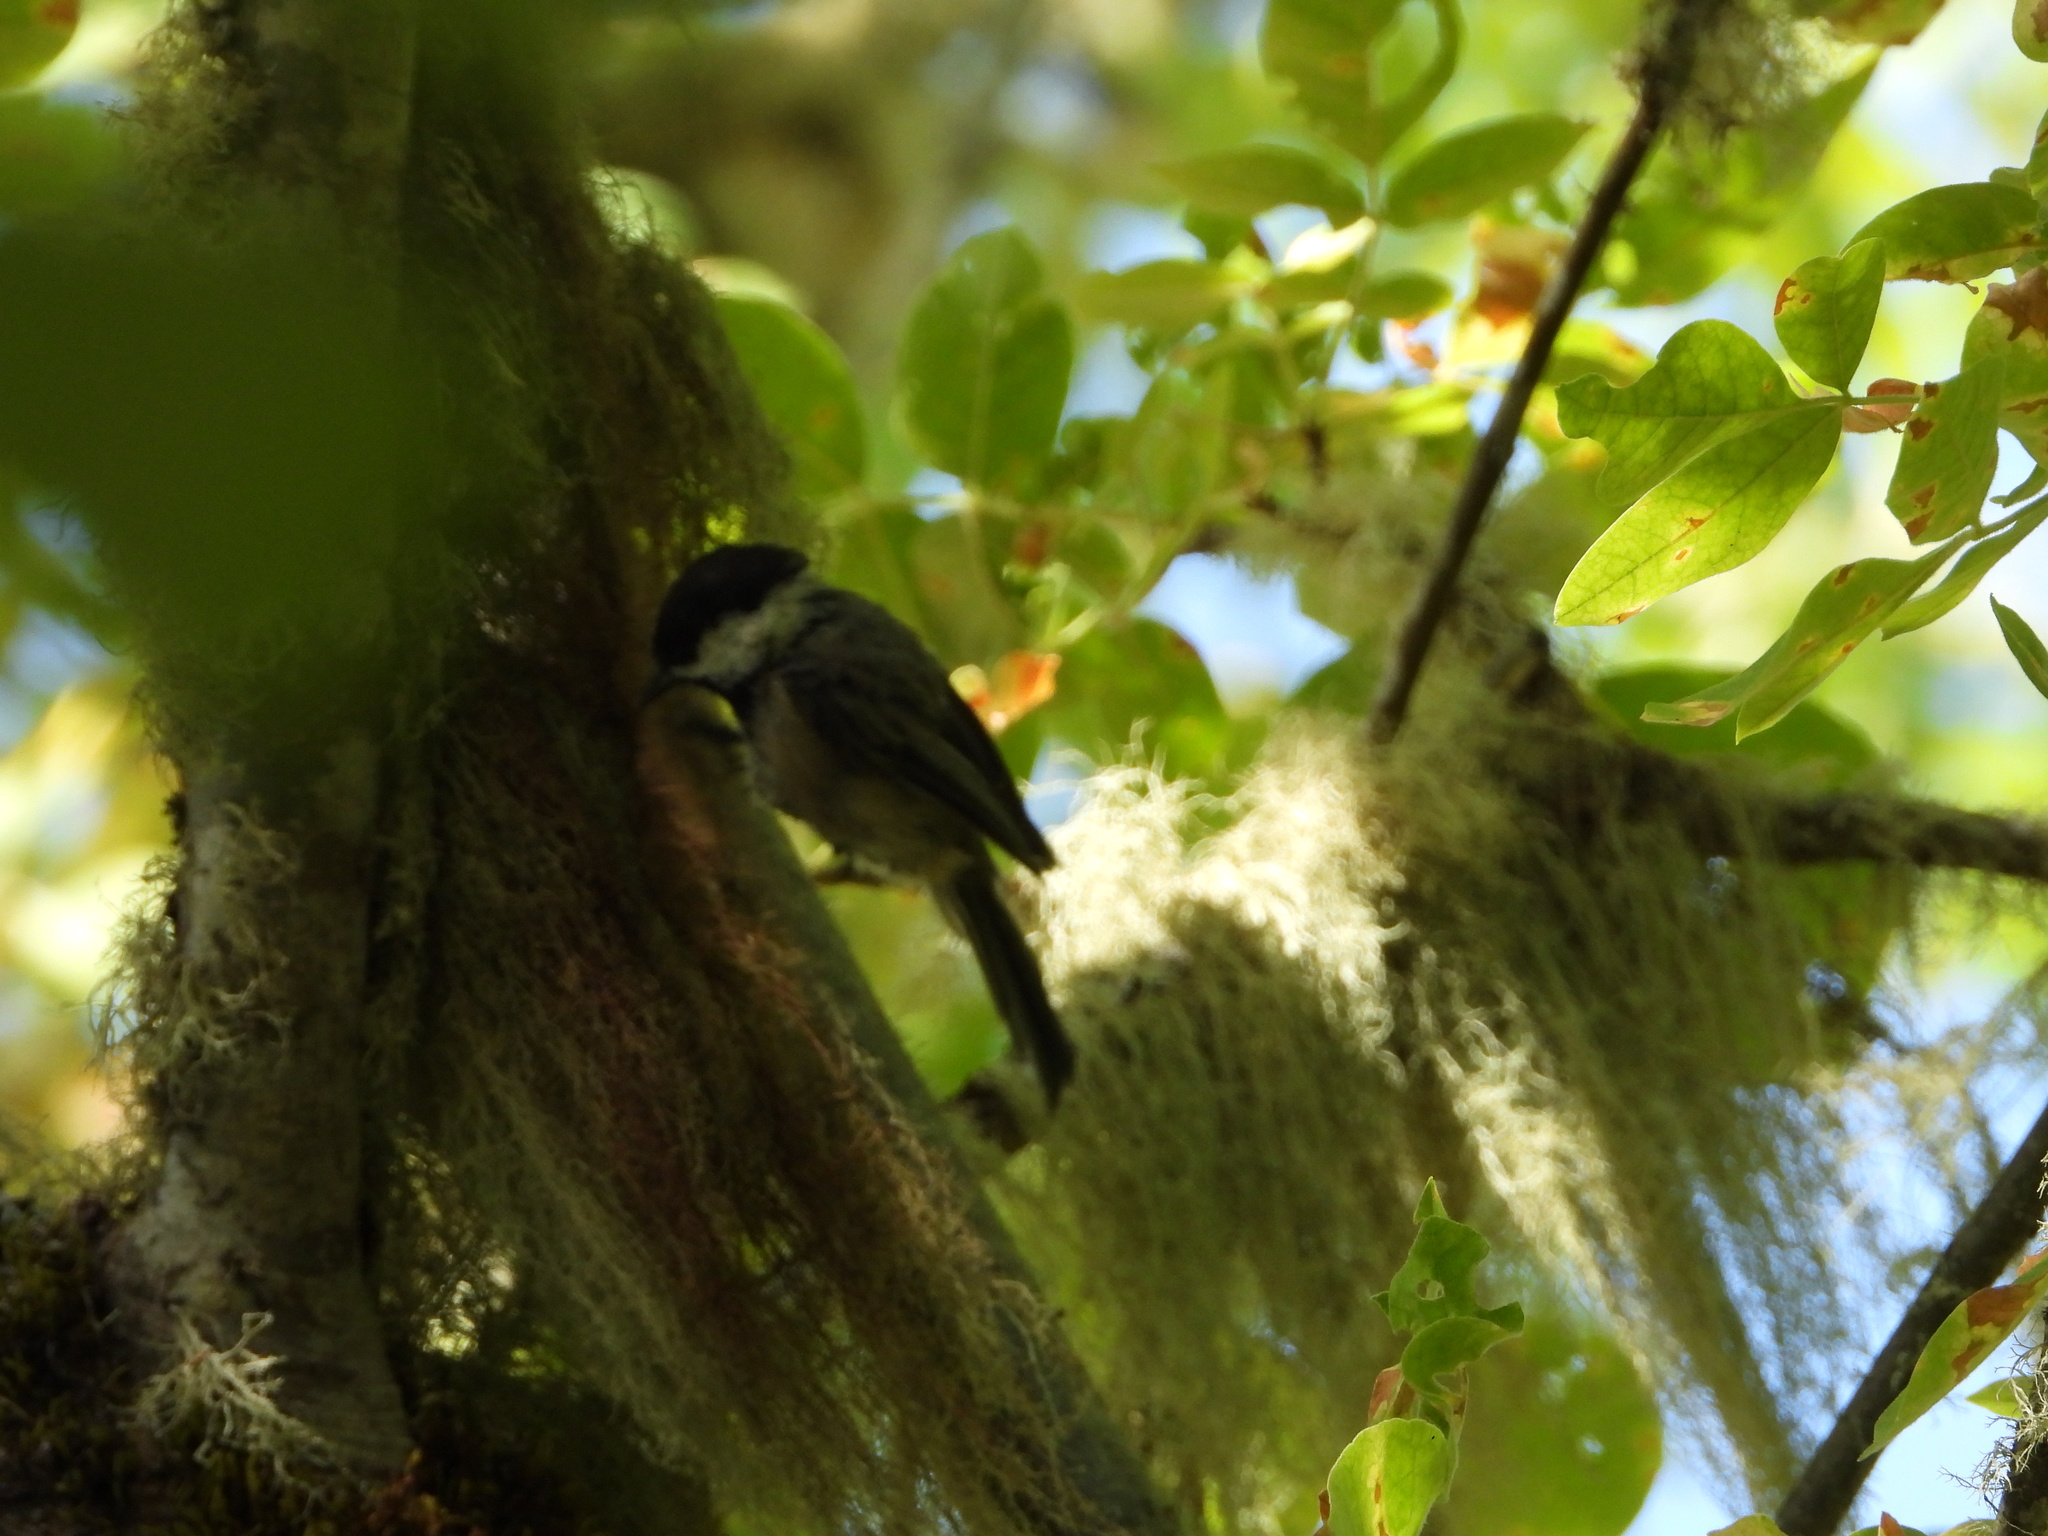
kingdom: Animalia
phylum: Chordata
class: Aves
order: Passeriformes
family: Paridae
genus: Poecile
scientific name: Poecile atricapillus
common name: Black-capped chickadee
